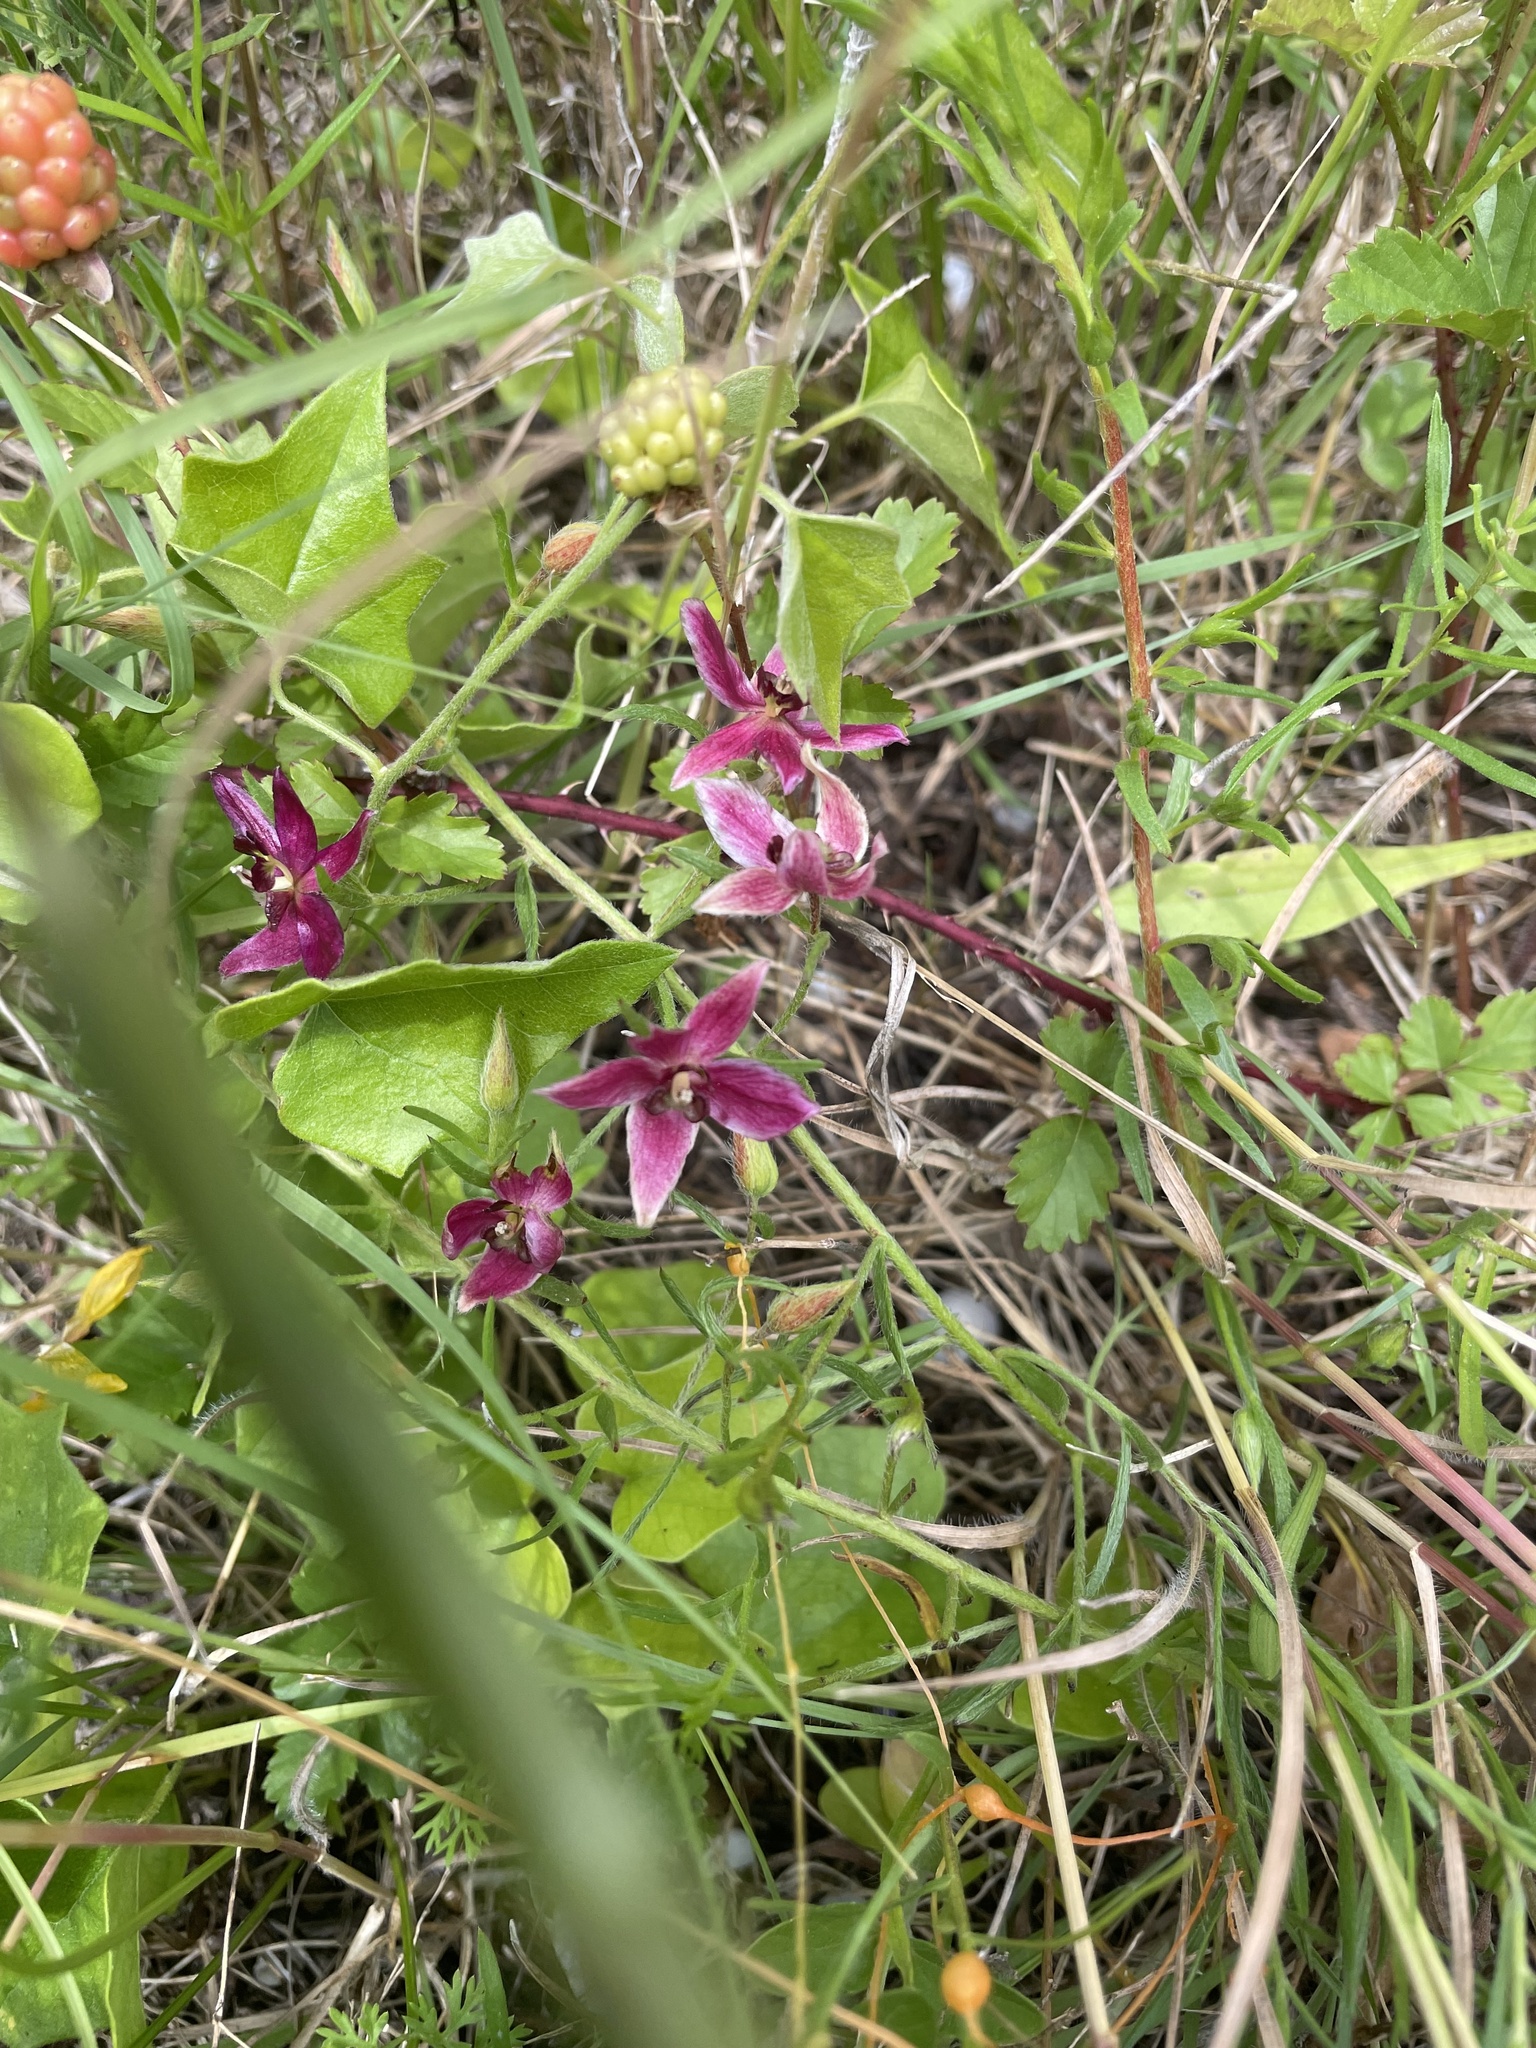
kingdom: Plantae
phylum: Tracheophyta
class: Magnoliopsida
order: Zygophyllales
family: Krameriaceae
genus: Krameria
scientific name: Krameria lanceolata
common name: Ratany
